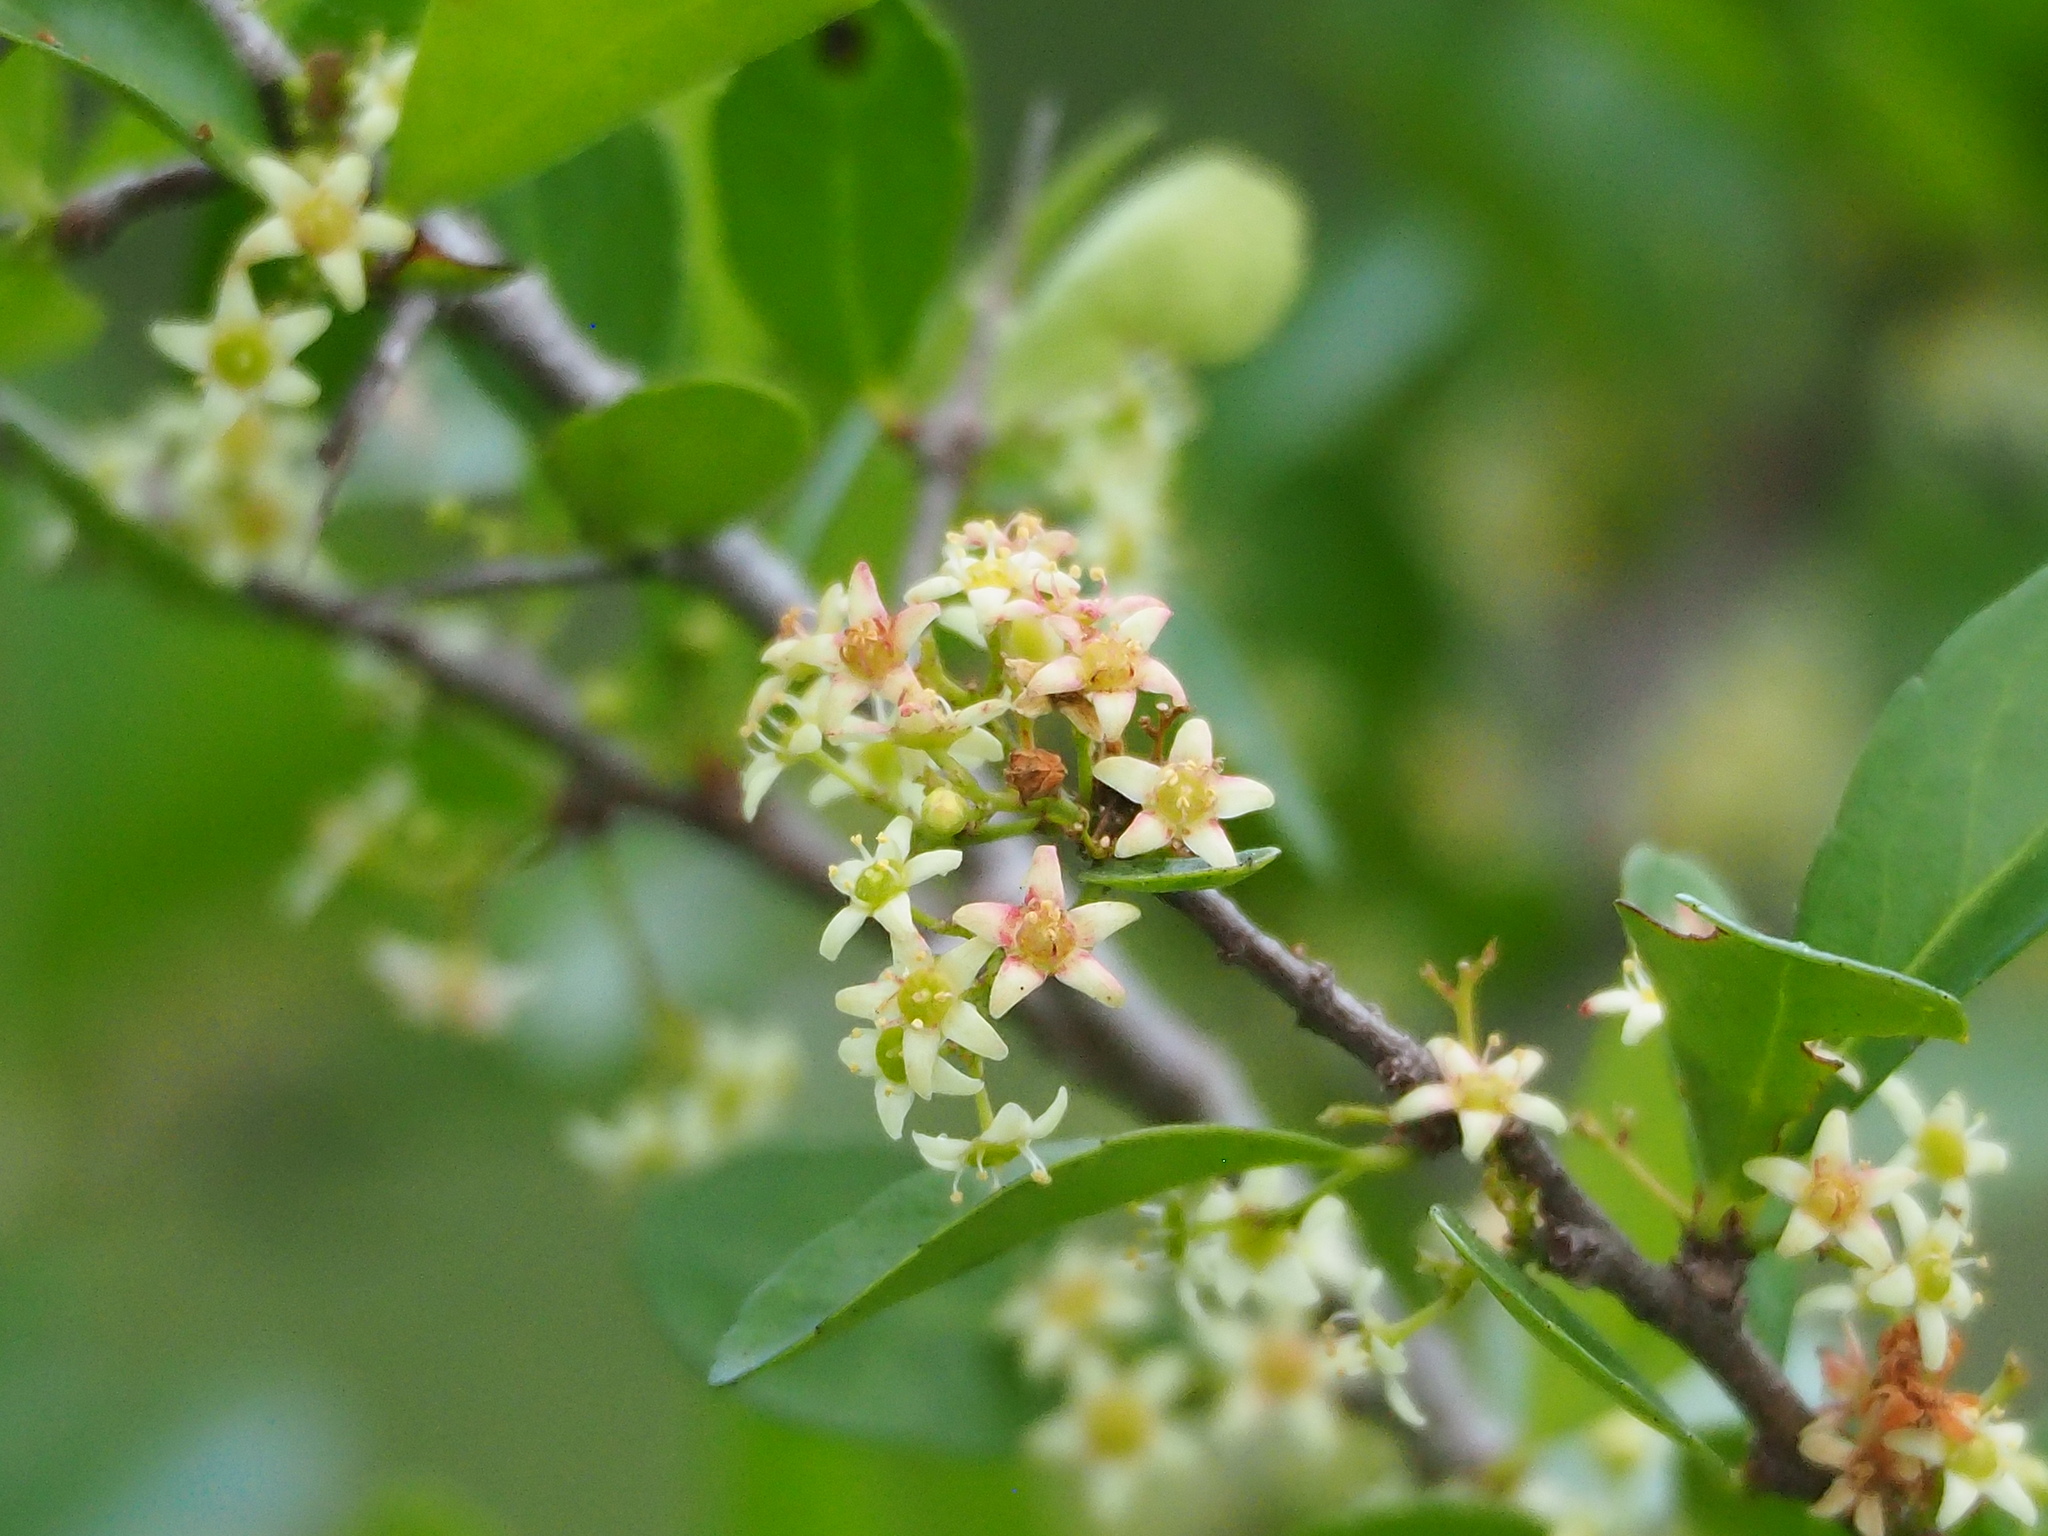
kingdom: Plantae
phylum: Tracheophyta
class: Magnoliopsida
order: Celastrales
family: Celastraceae
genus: Gymnosporia
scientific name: Gymnosporia diversifolia
